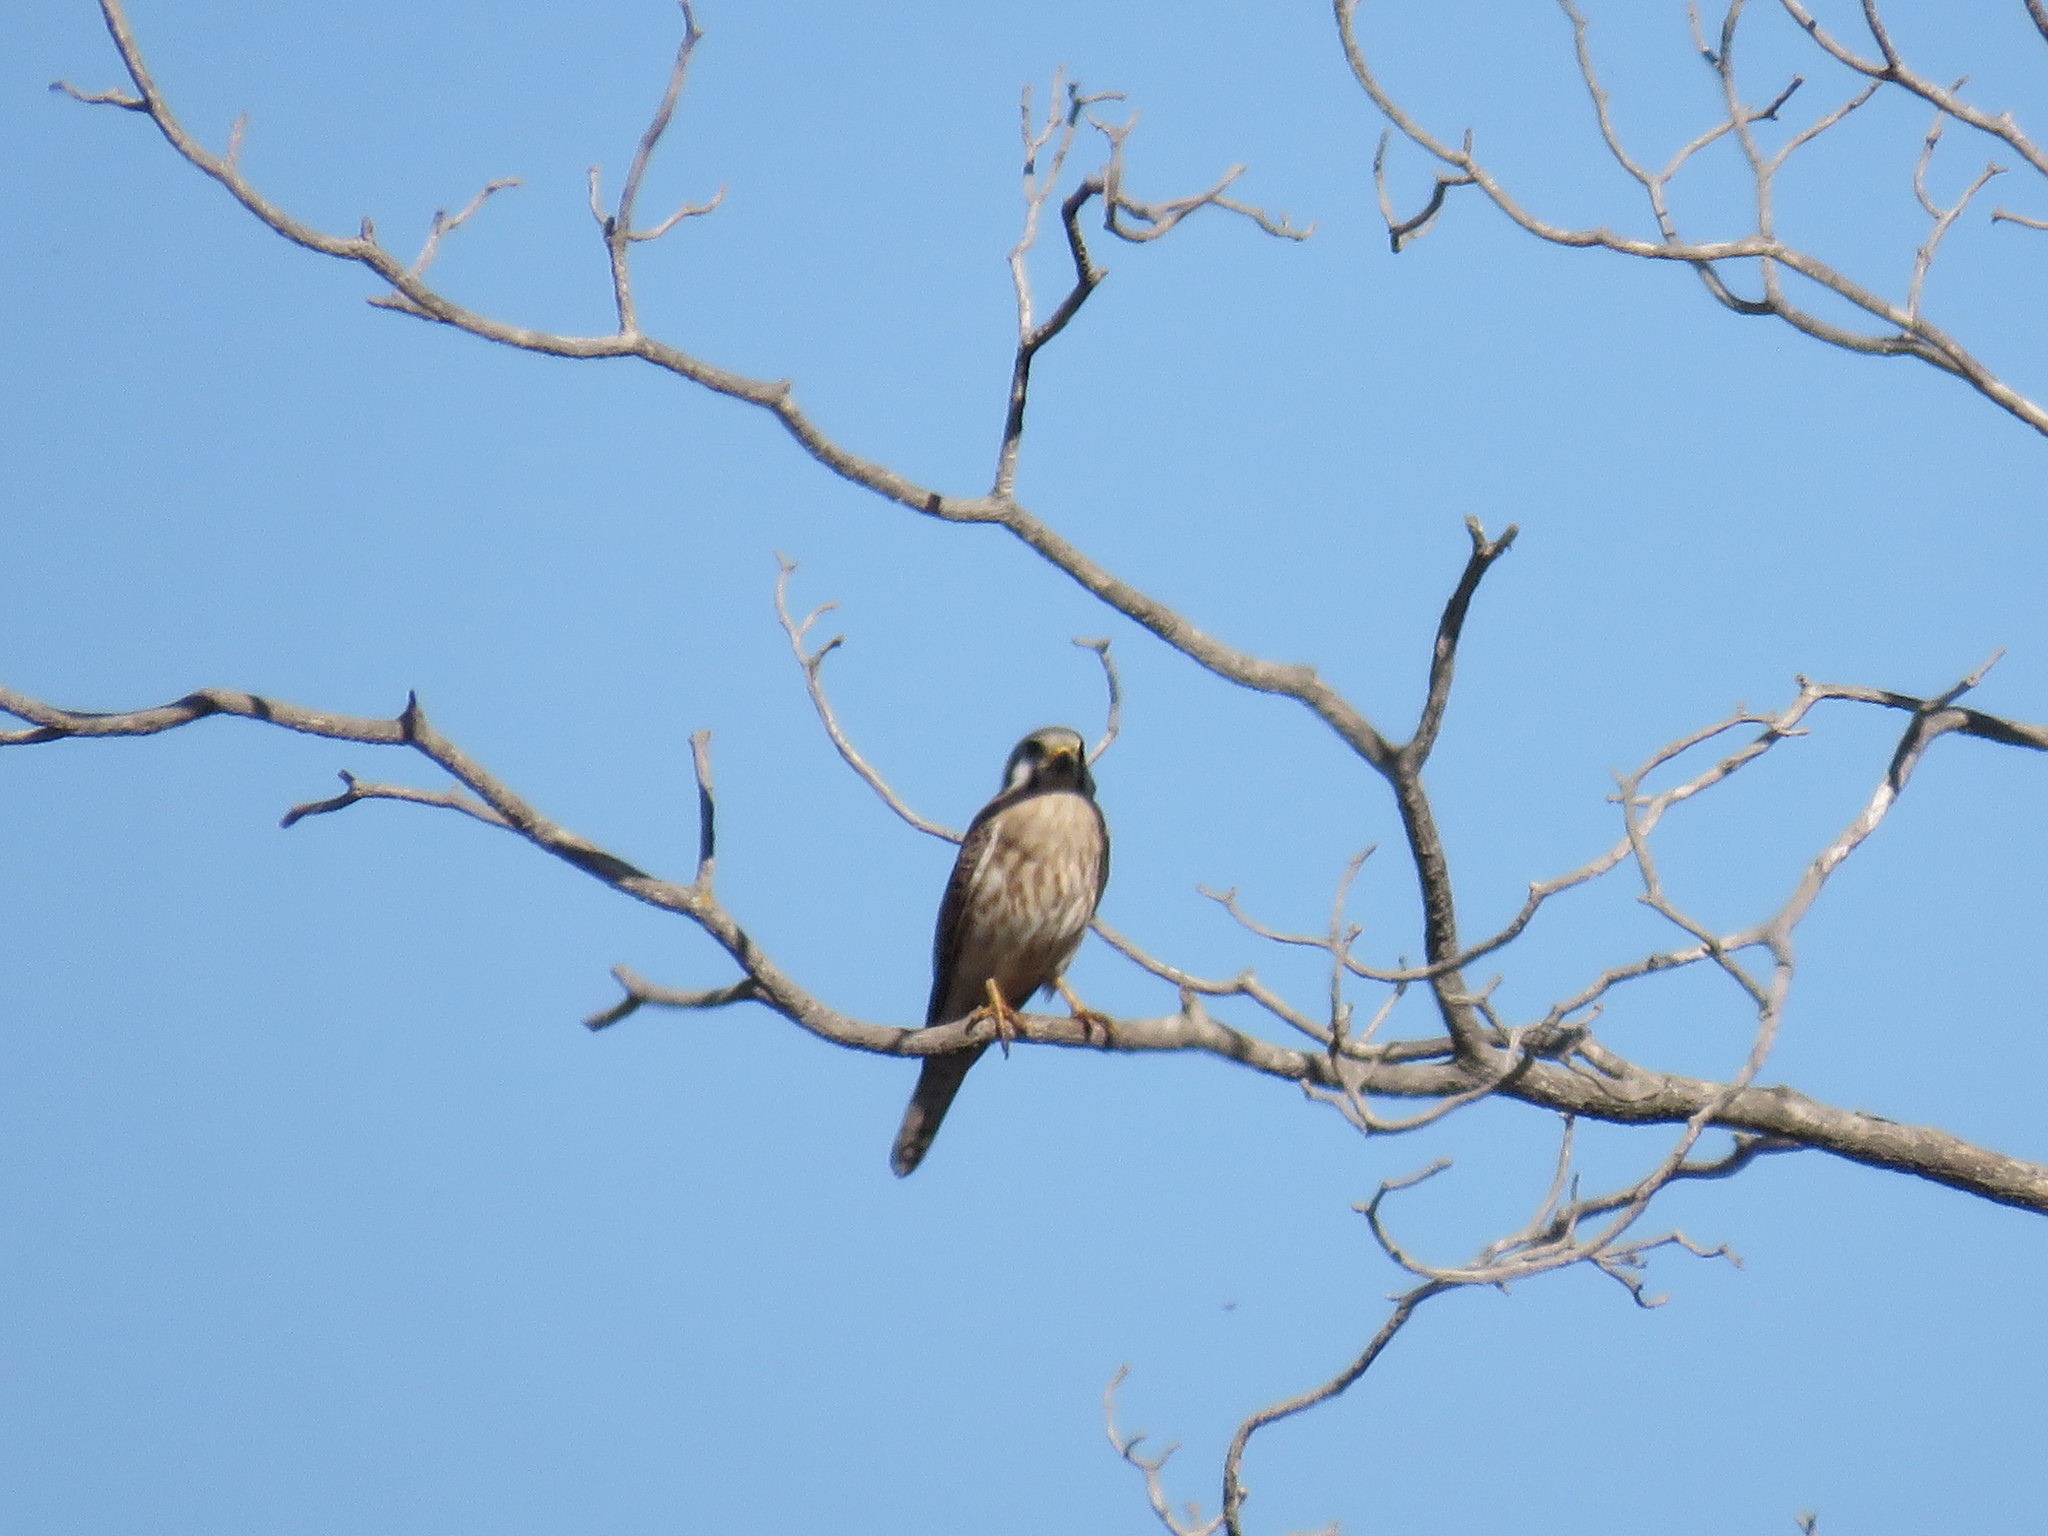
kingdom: Animalia
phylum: Chordata
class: Aves
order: Falconiformes
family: Falconidae
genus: Falco
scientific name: Falco sparverius
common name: American kestrel
